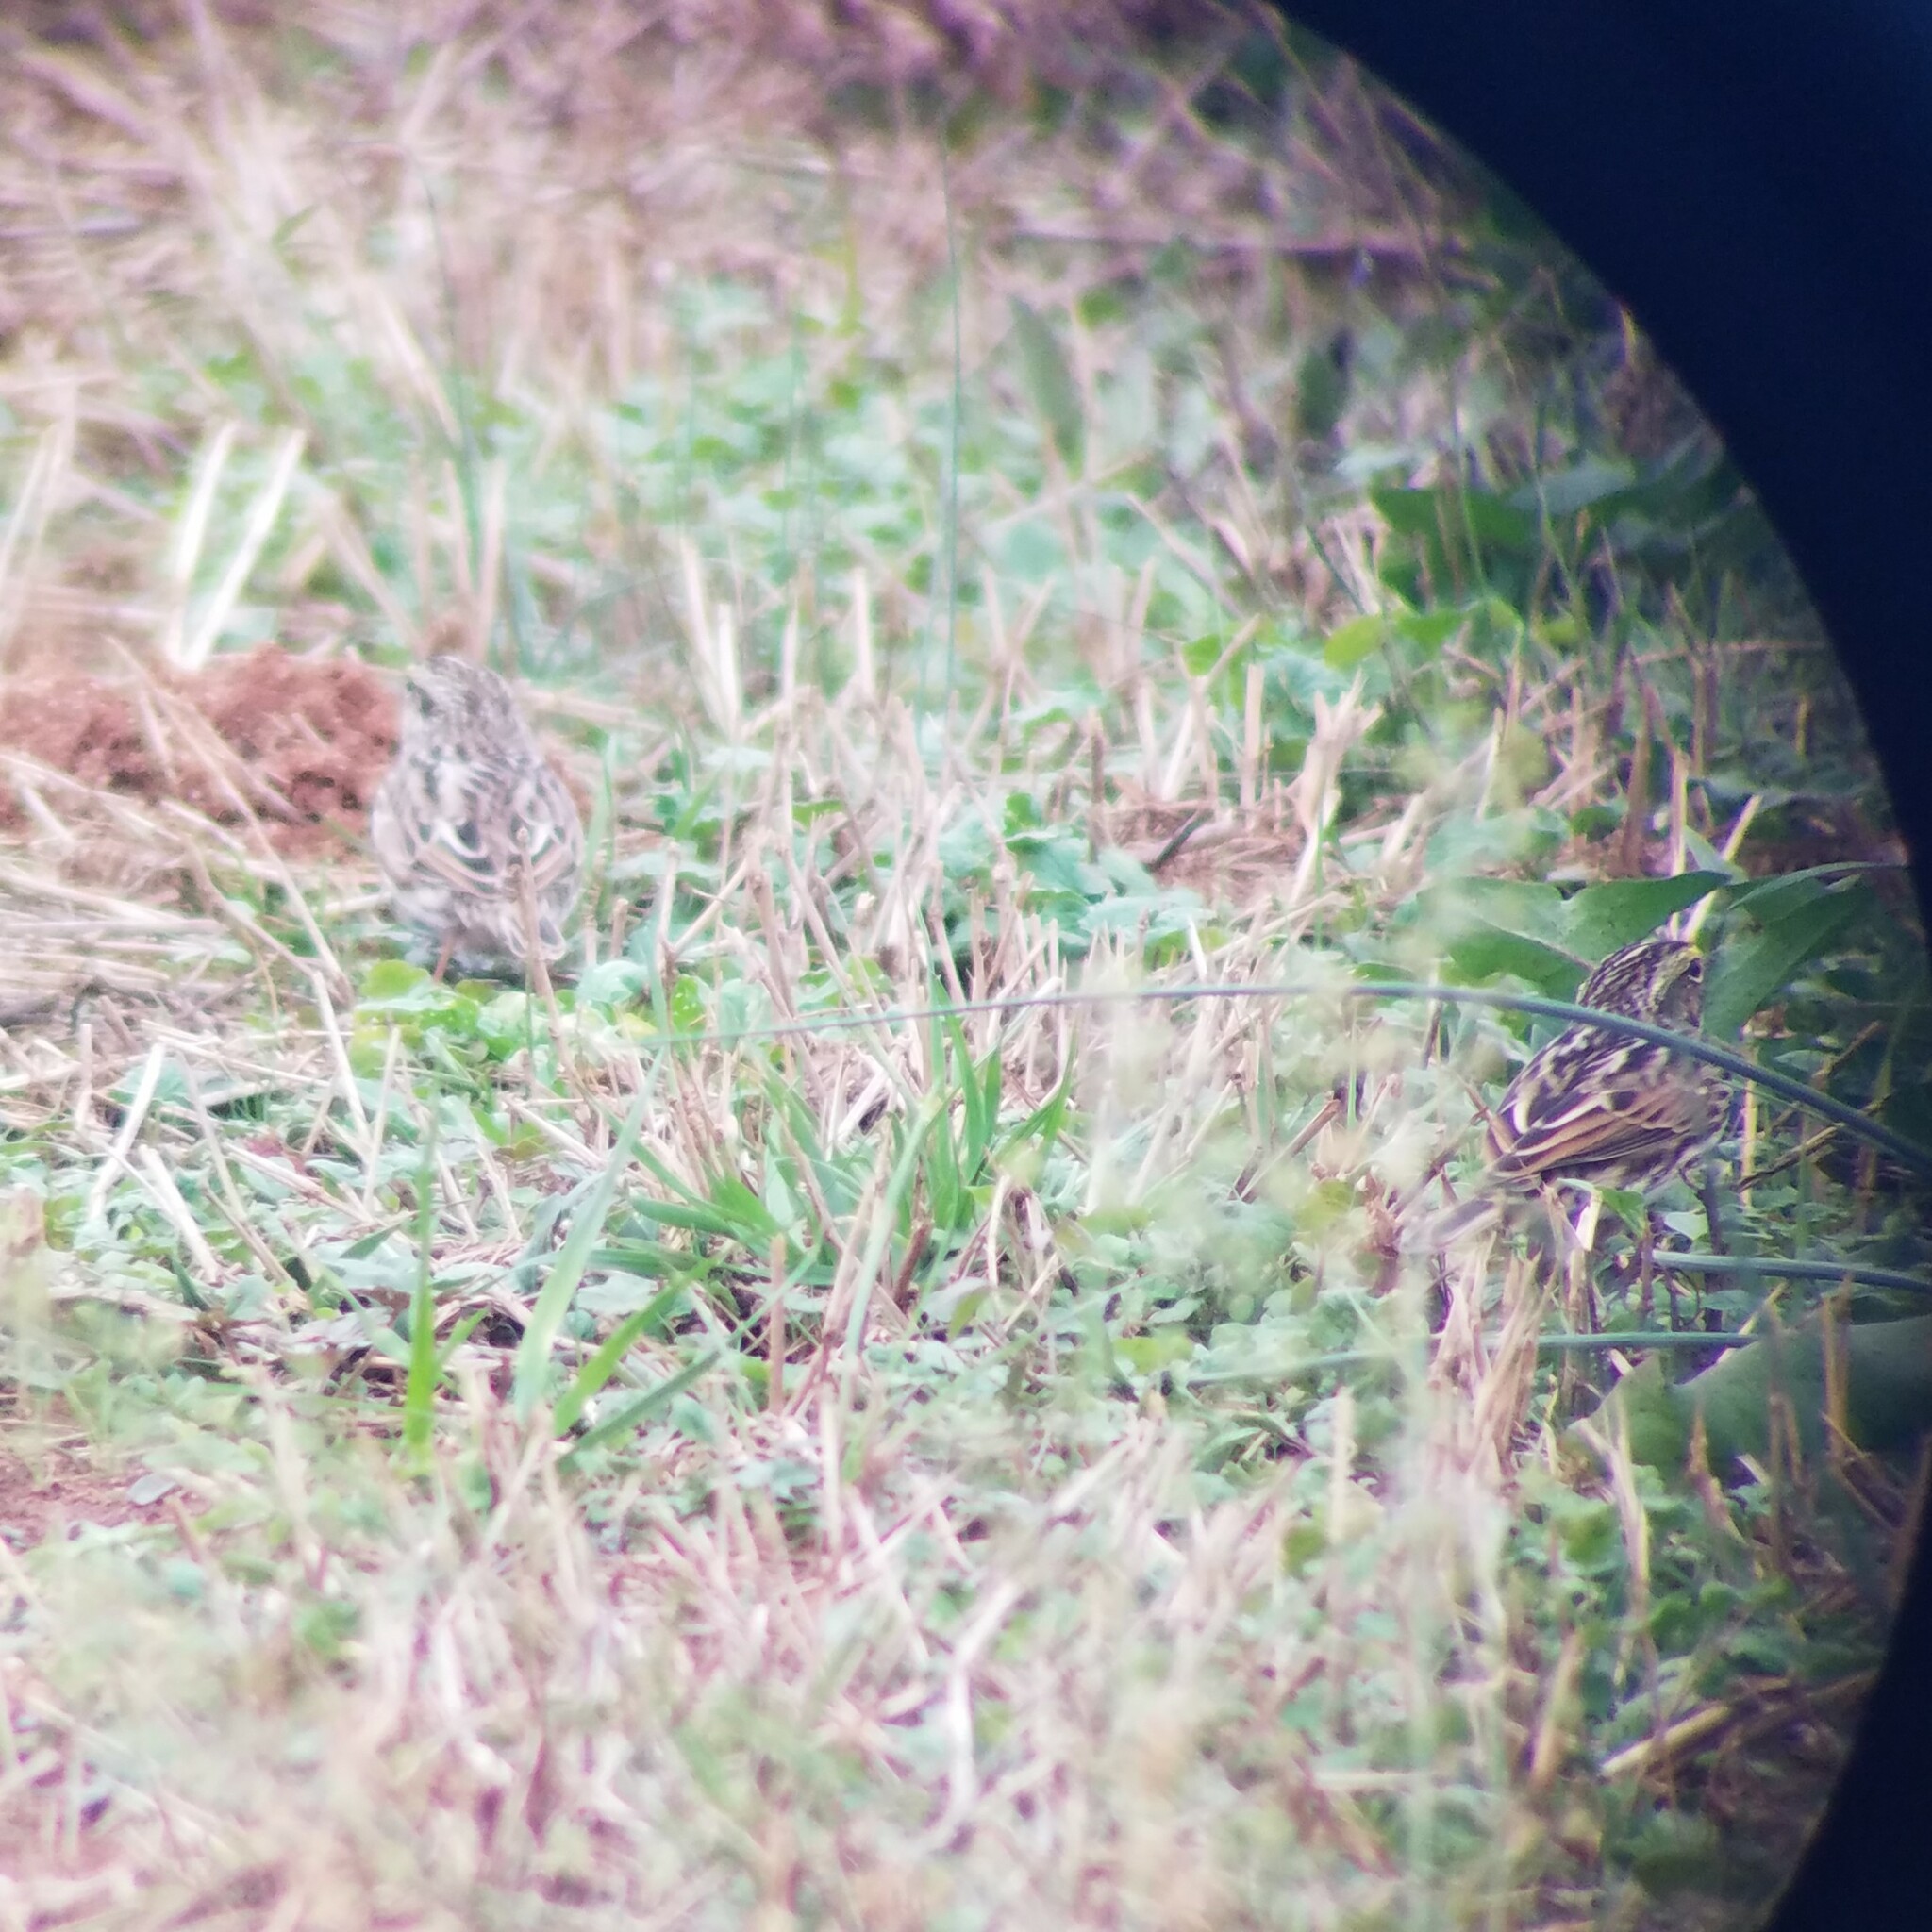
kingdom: Animalia
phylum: Chordata
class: Aves
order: Passeriformes
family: Passerellidae
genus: Passerculus
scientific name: Passerculus sandwichensis
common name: Savannah sparrow
